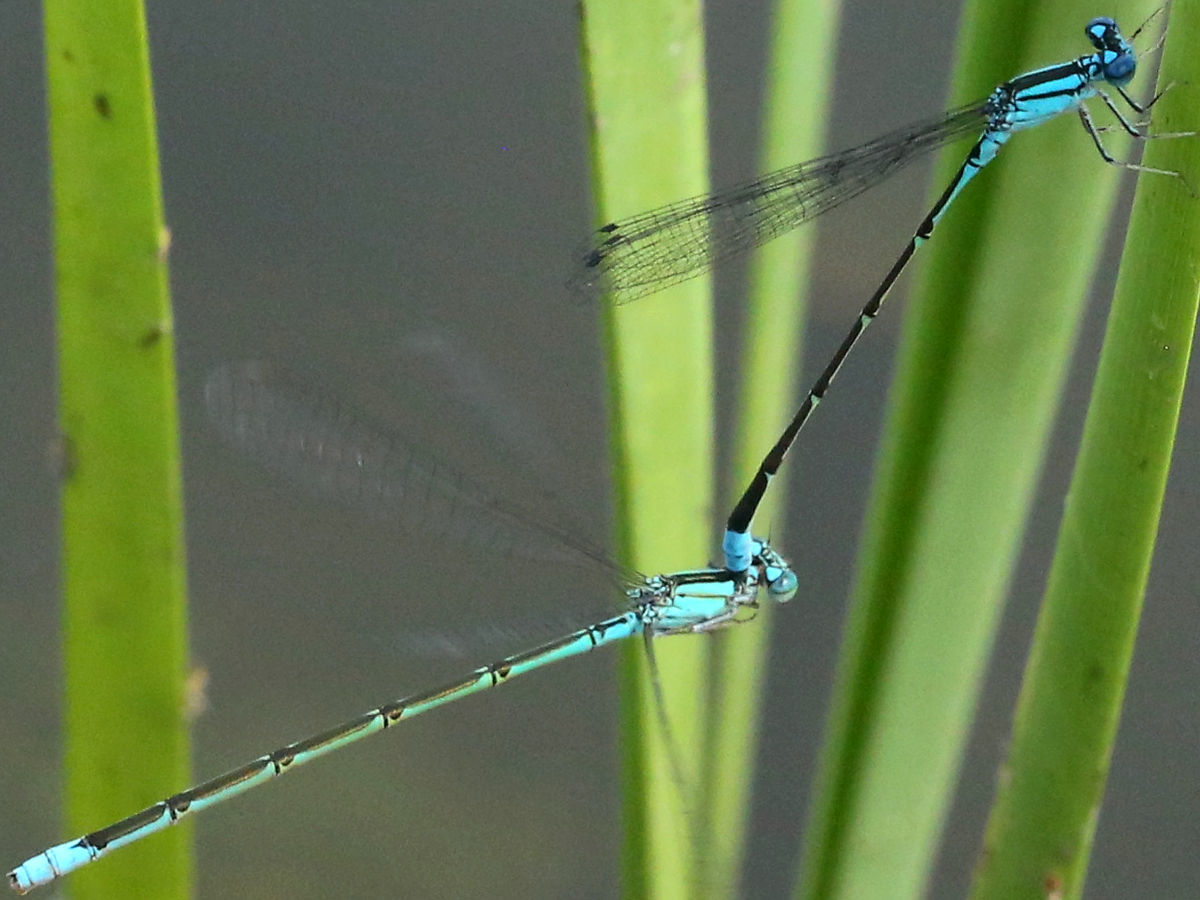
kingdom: Animalia
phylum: Arthropoda
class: Insecta
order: Odonata
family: Coenagrionidae
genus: Enallagma
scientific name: Enallagma traviatum
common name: Slender bluet
